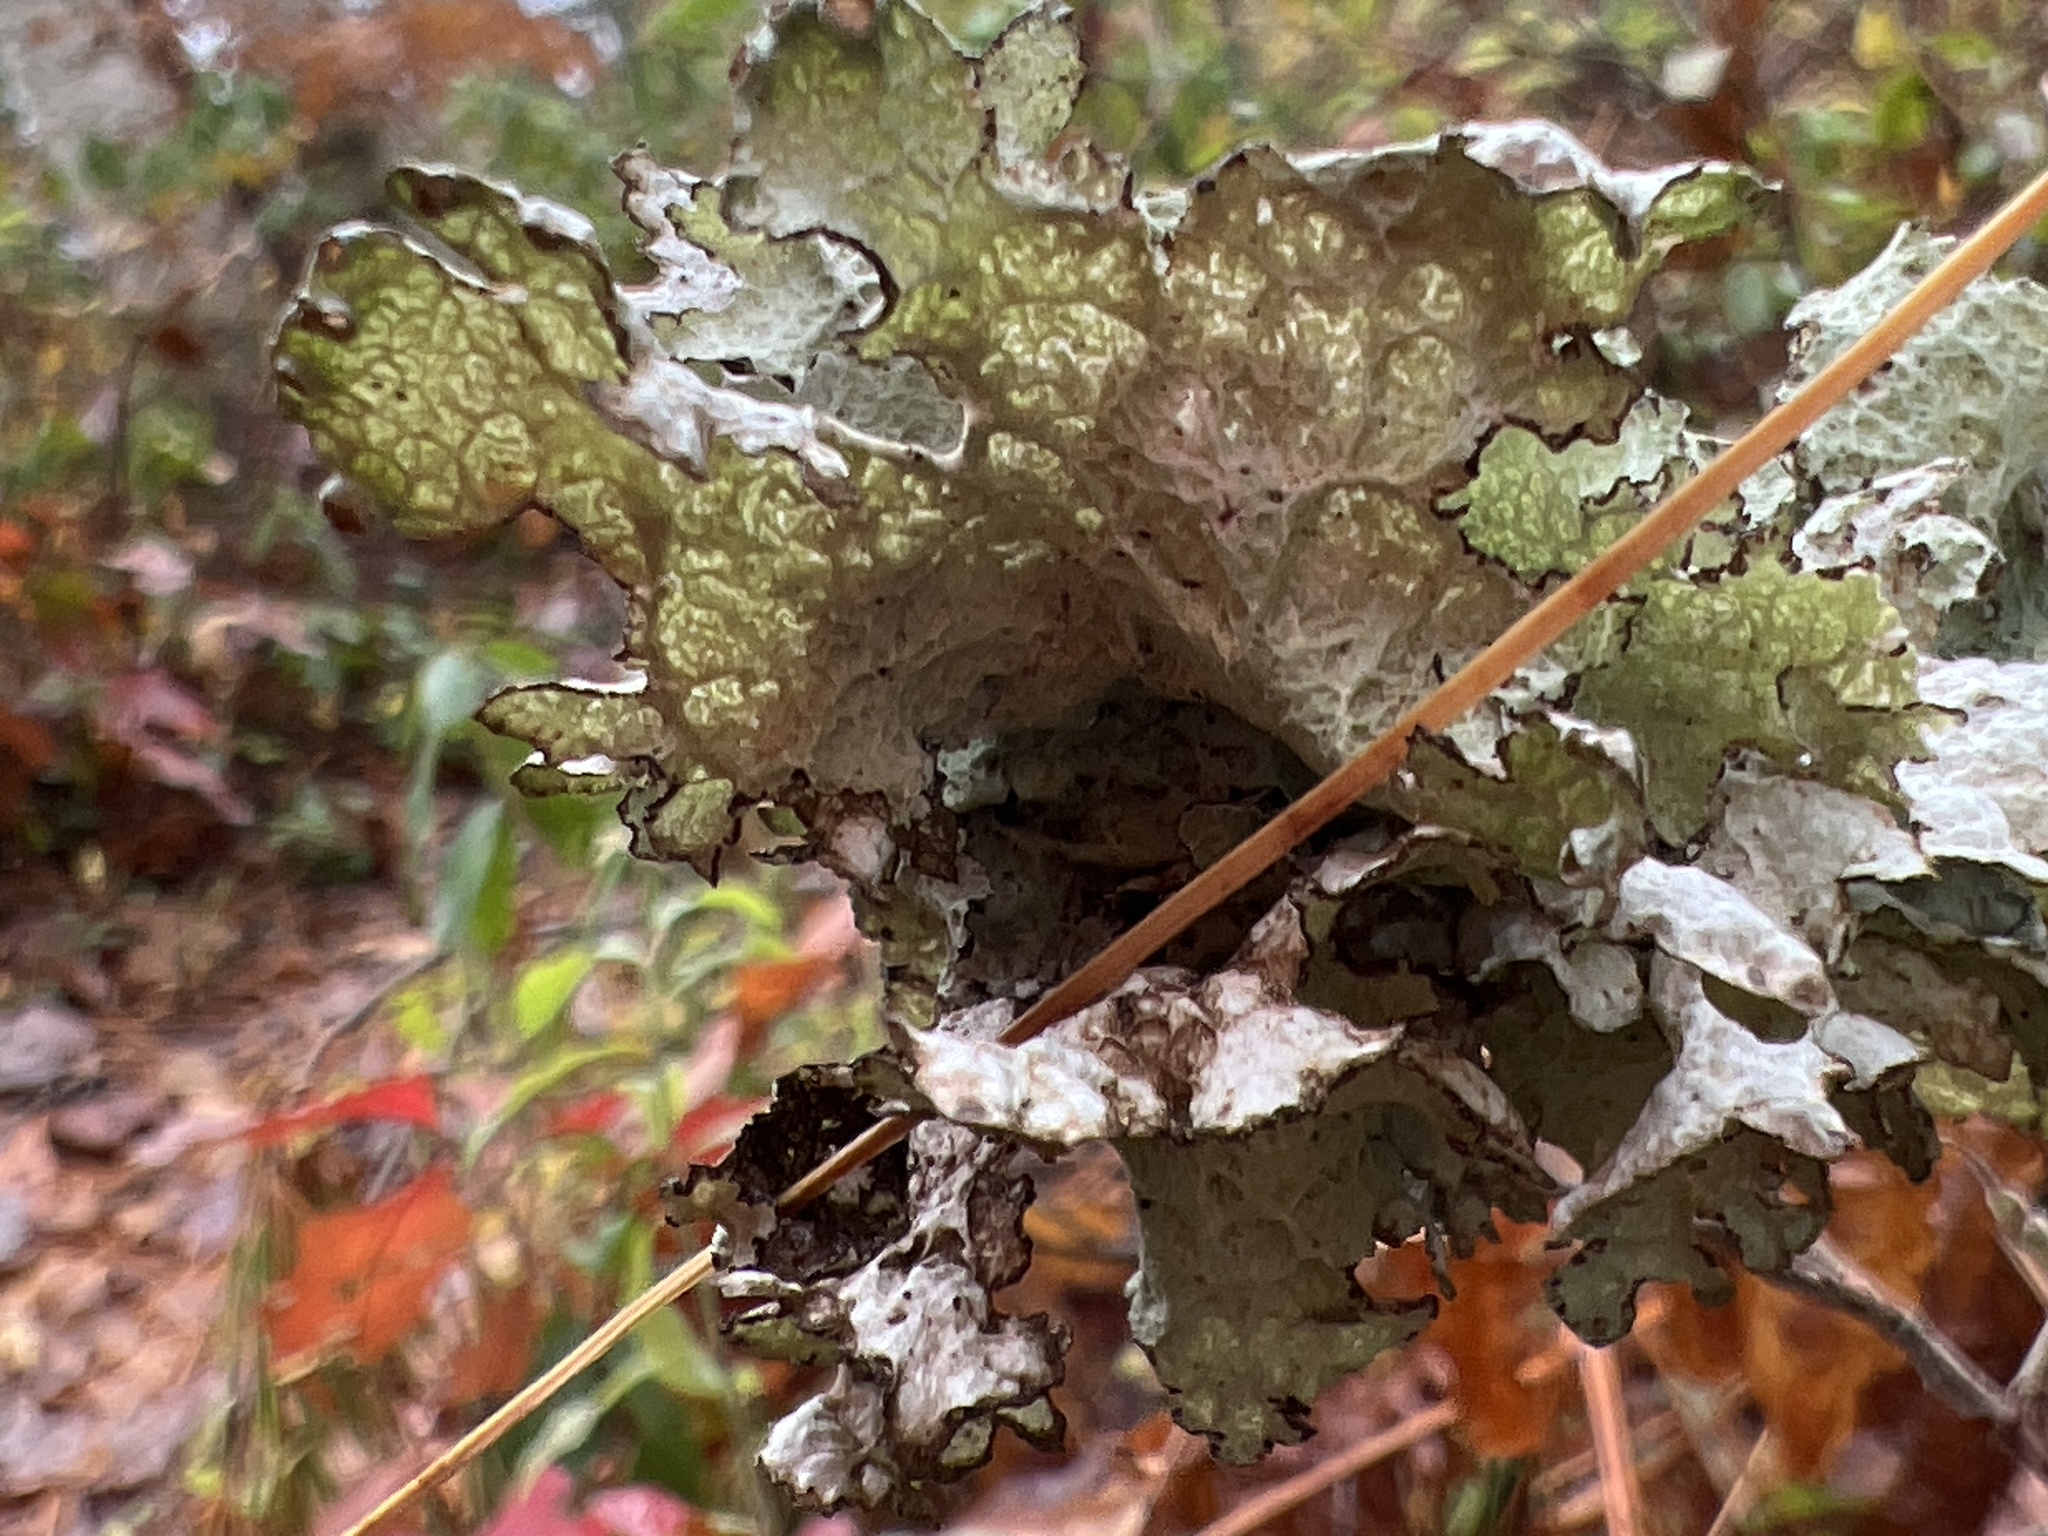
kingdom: Fungi
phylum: Ascomycota
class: Lecanoromycetes
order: Lecanorales
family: Parmeliaceae
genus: Platismatia
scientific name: Platismatia tuckermanii
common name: Crumpled rag lichen
